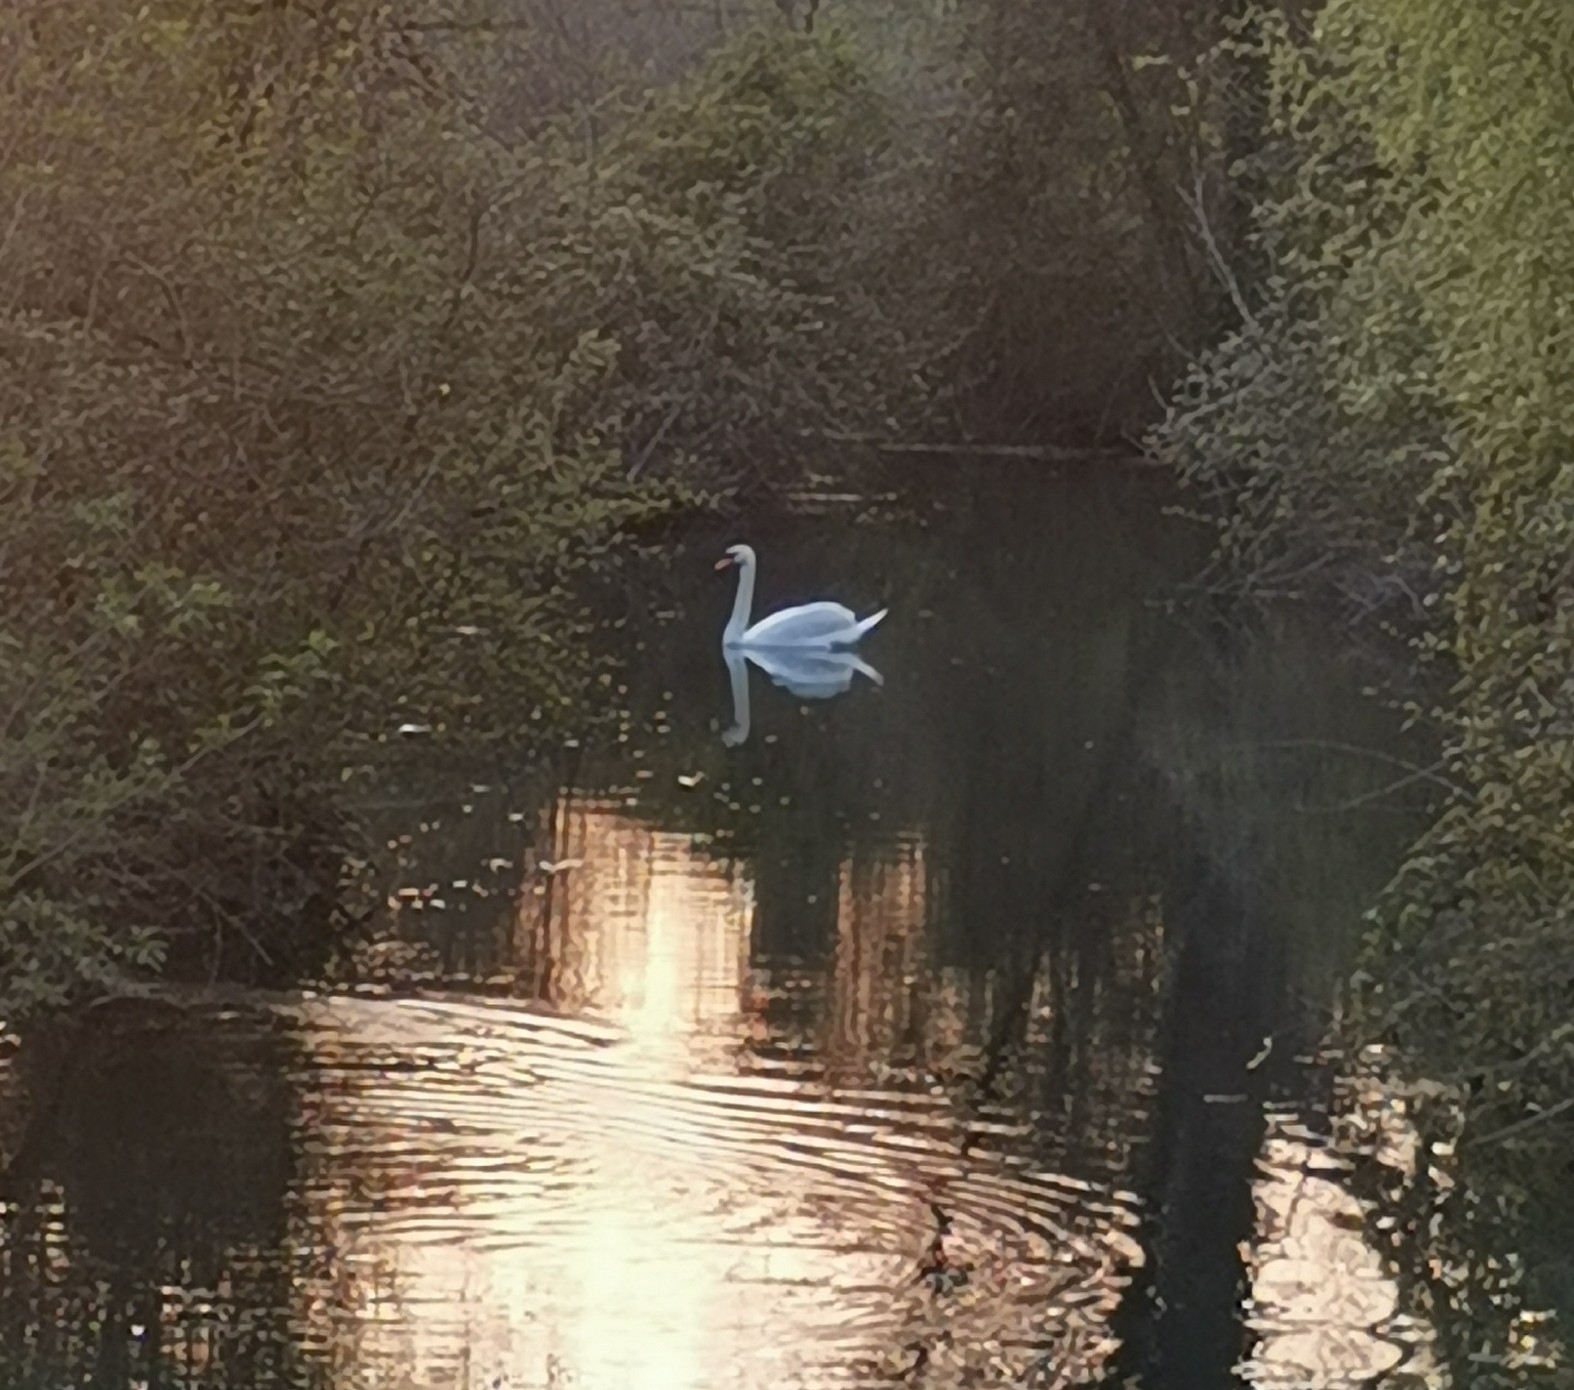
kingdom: Animalia
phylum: Chordata
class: Aves
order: Anseriformes
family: Anatidae
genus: Cygnus
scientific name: Cygnus olor
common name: Mute swan
